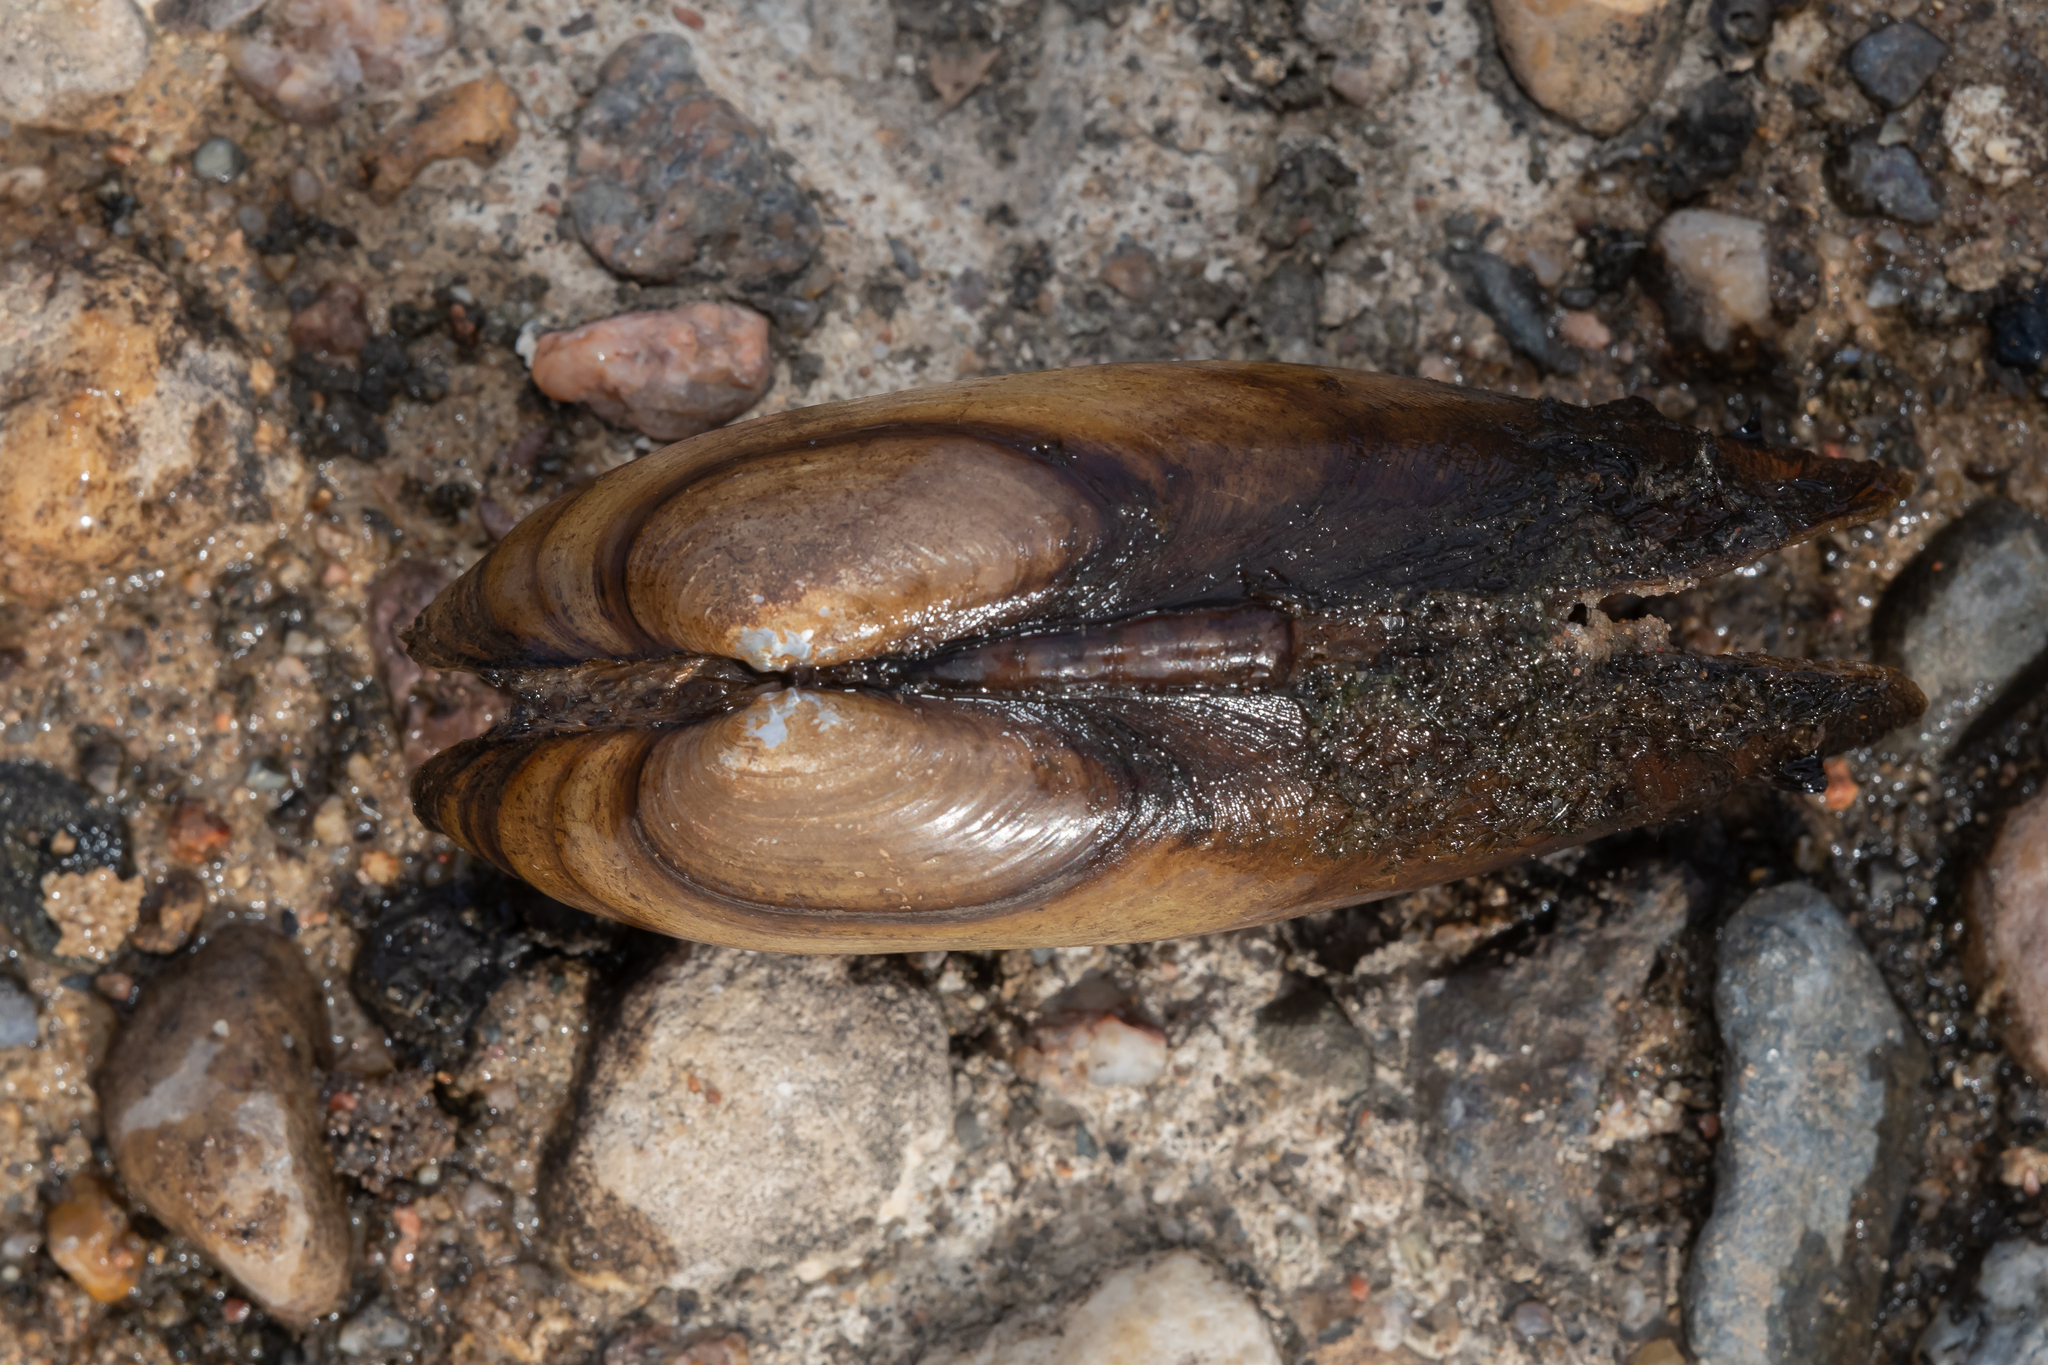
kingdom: Animalia
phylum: Mollusca
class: Bivalvia
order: Unionida
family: Unionidae
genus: Unio
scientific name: Unio pictorum
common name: Painter's mussel
